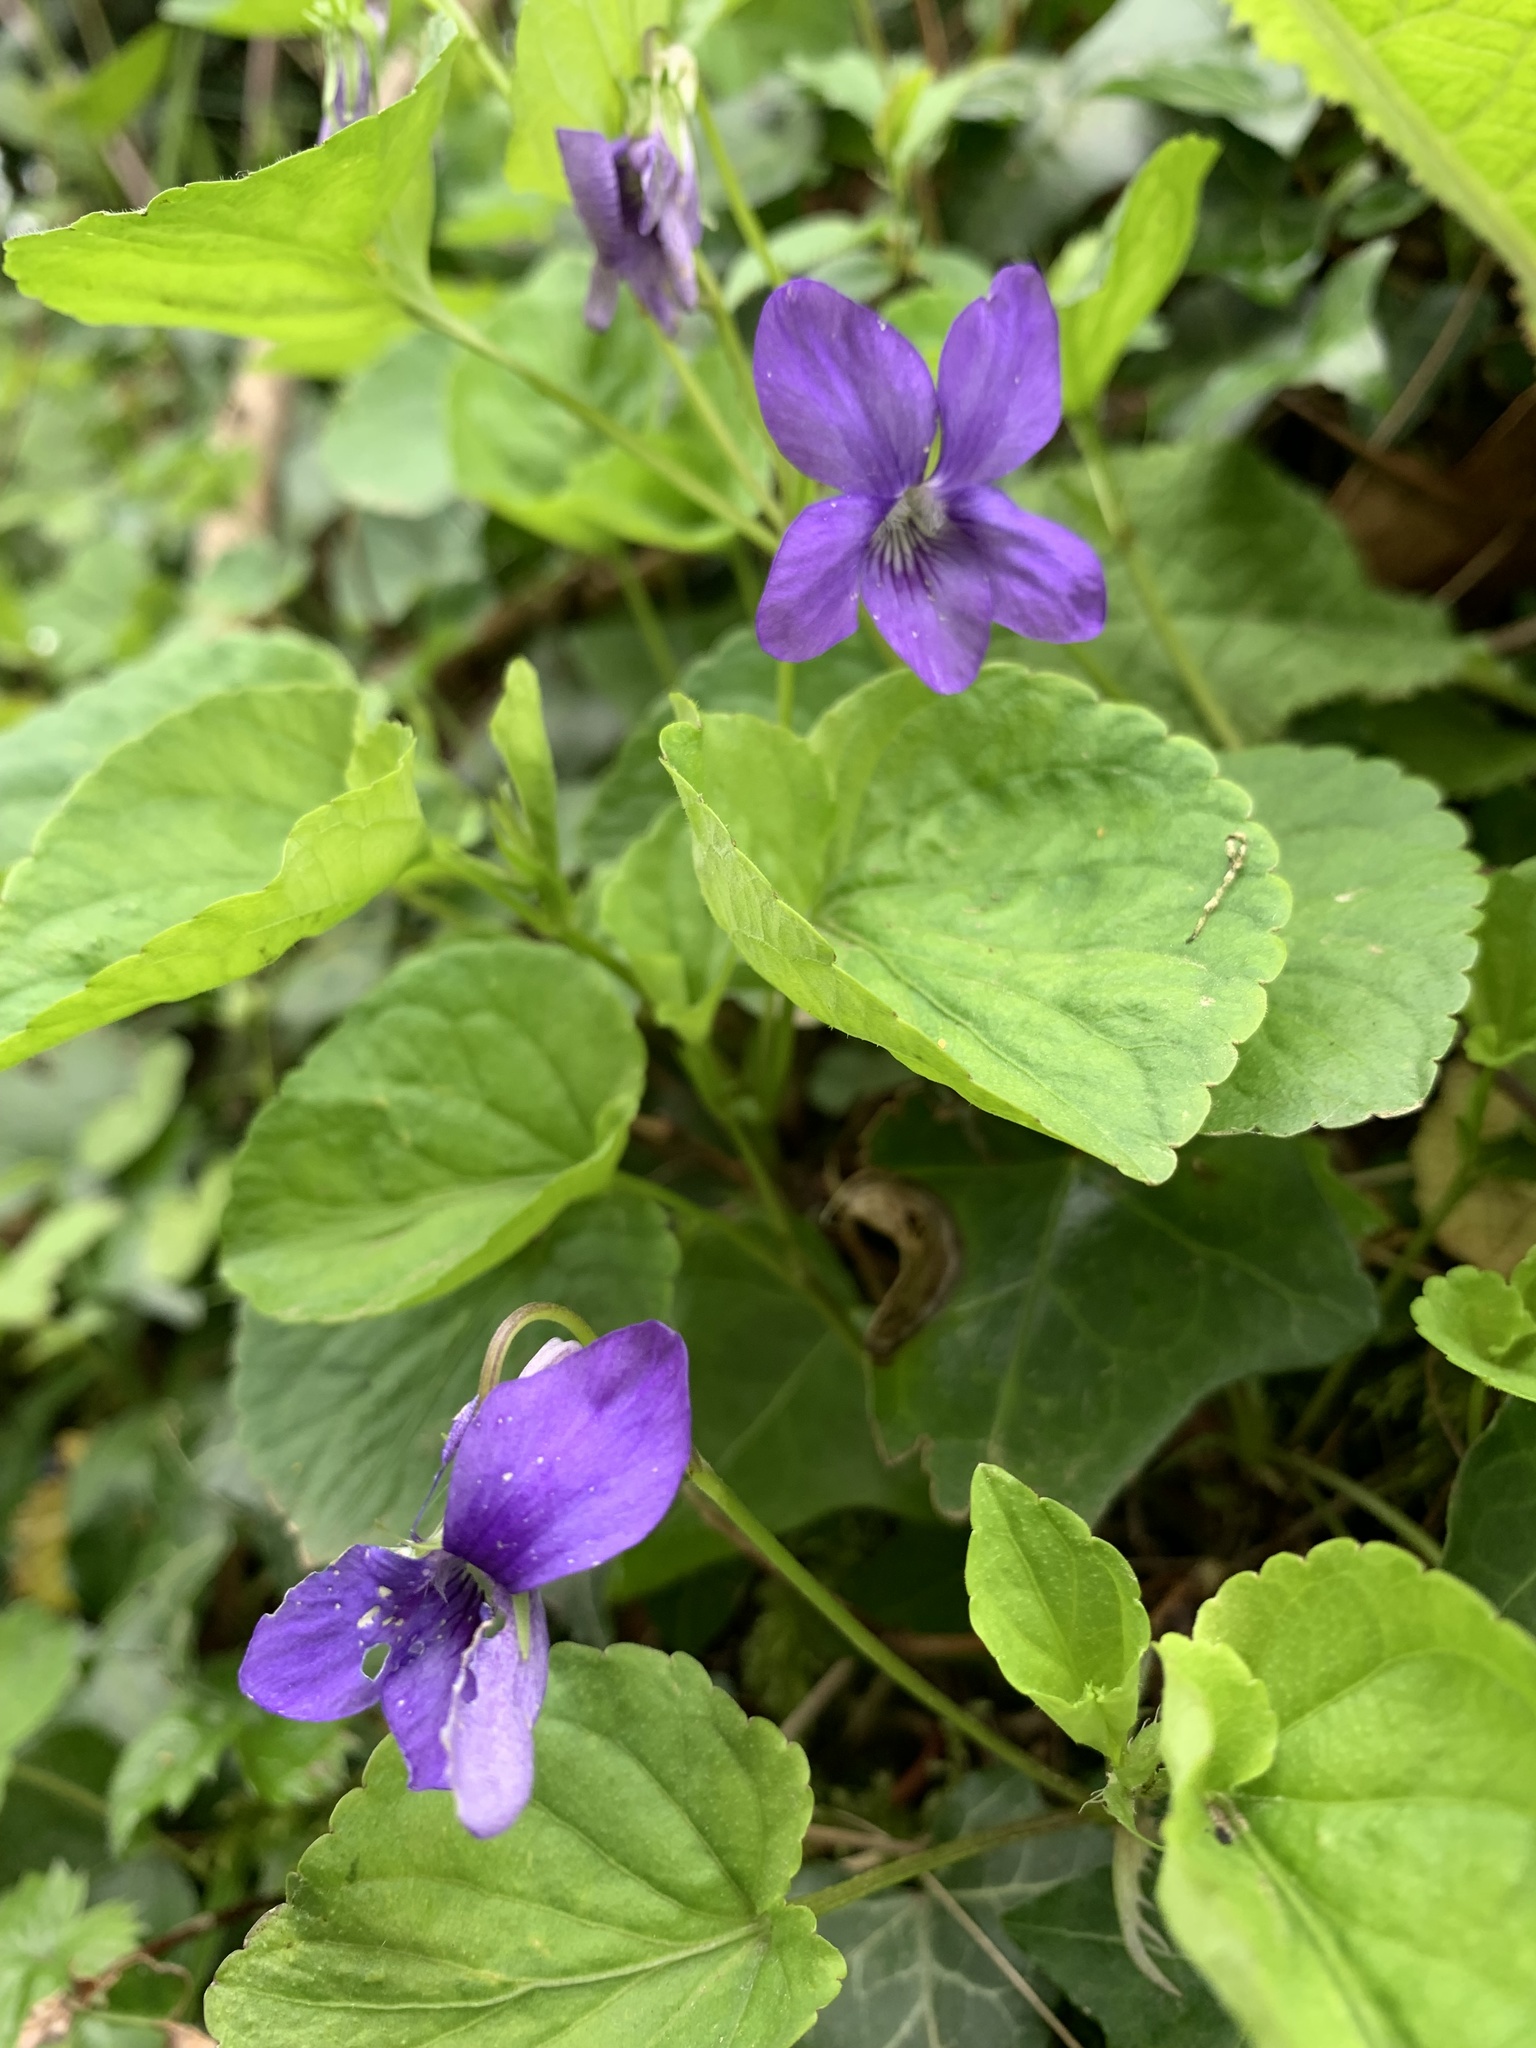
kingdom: Plantae
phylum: Tracheophyta
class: Magnoliopsida
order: Malpighiales
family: Violaceae
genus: Viola
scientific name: Viola riviniana
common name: Common dog-violet
